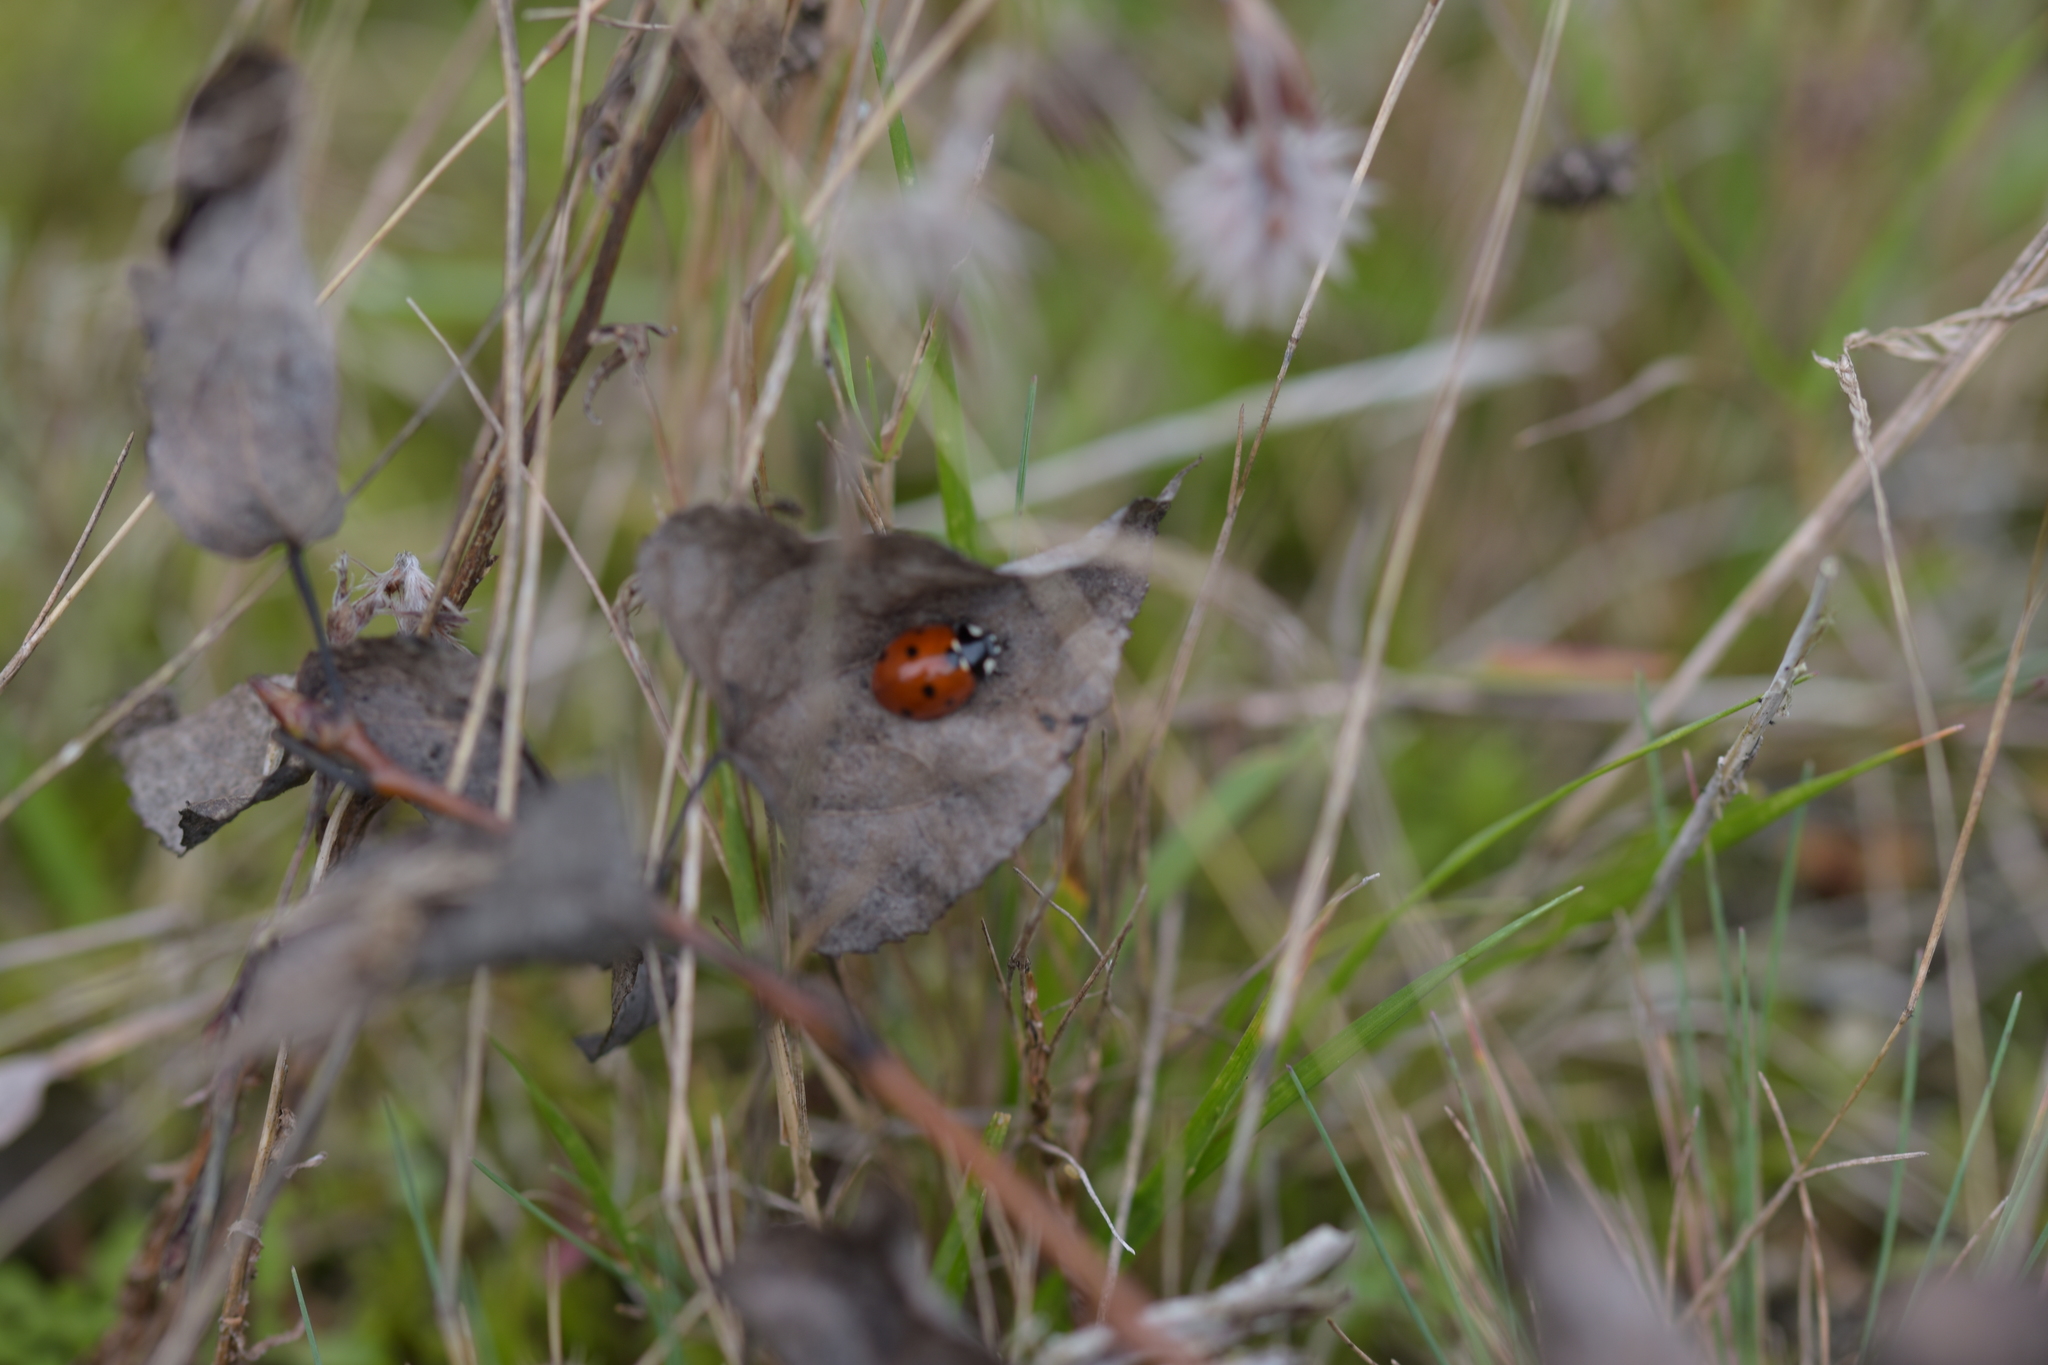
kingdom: Animalia
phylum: Arthropoda
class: Insecta
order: Coleoptera
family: Coccinellidae
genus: Coccinella
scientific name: Coccinella septempunctata
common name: Sevenspotted lady beetle
